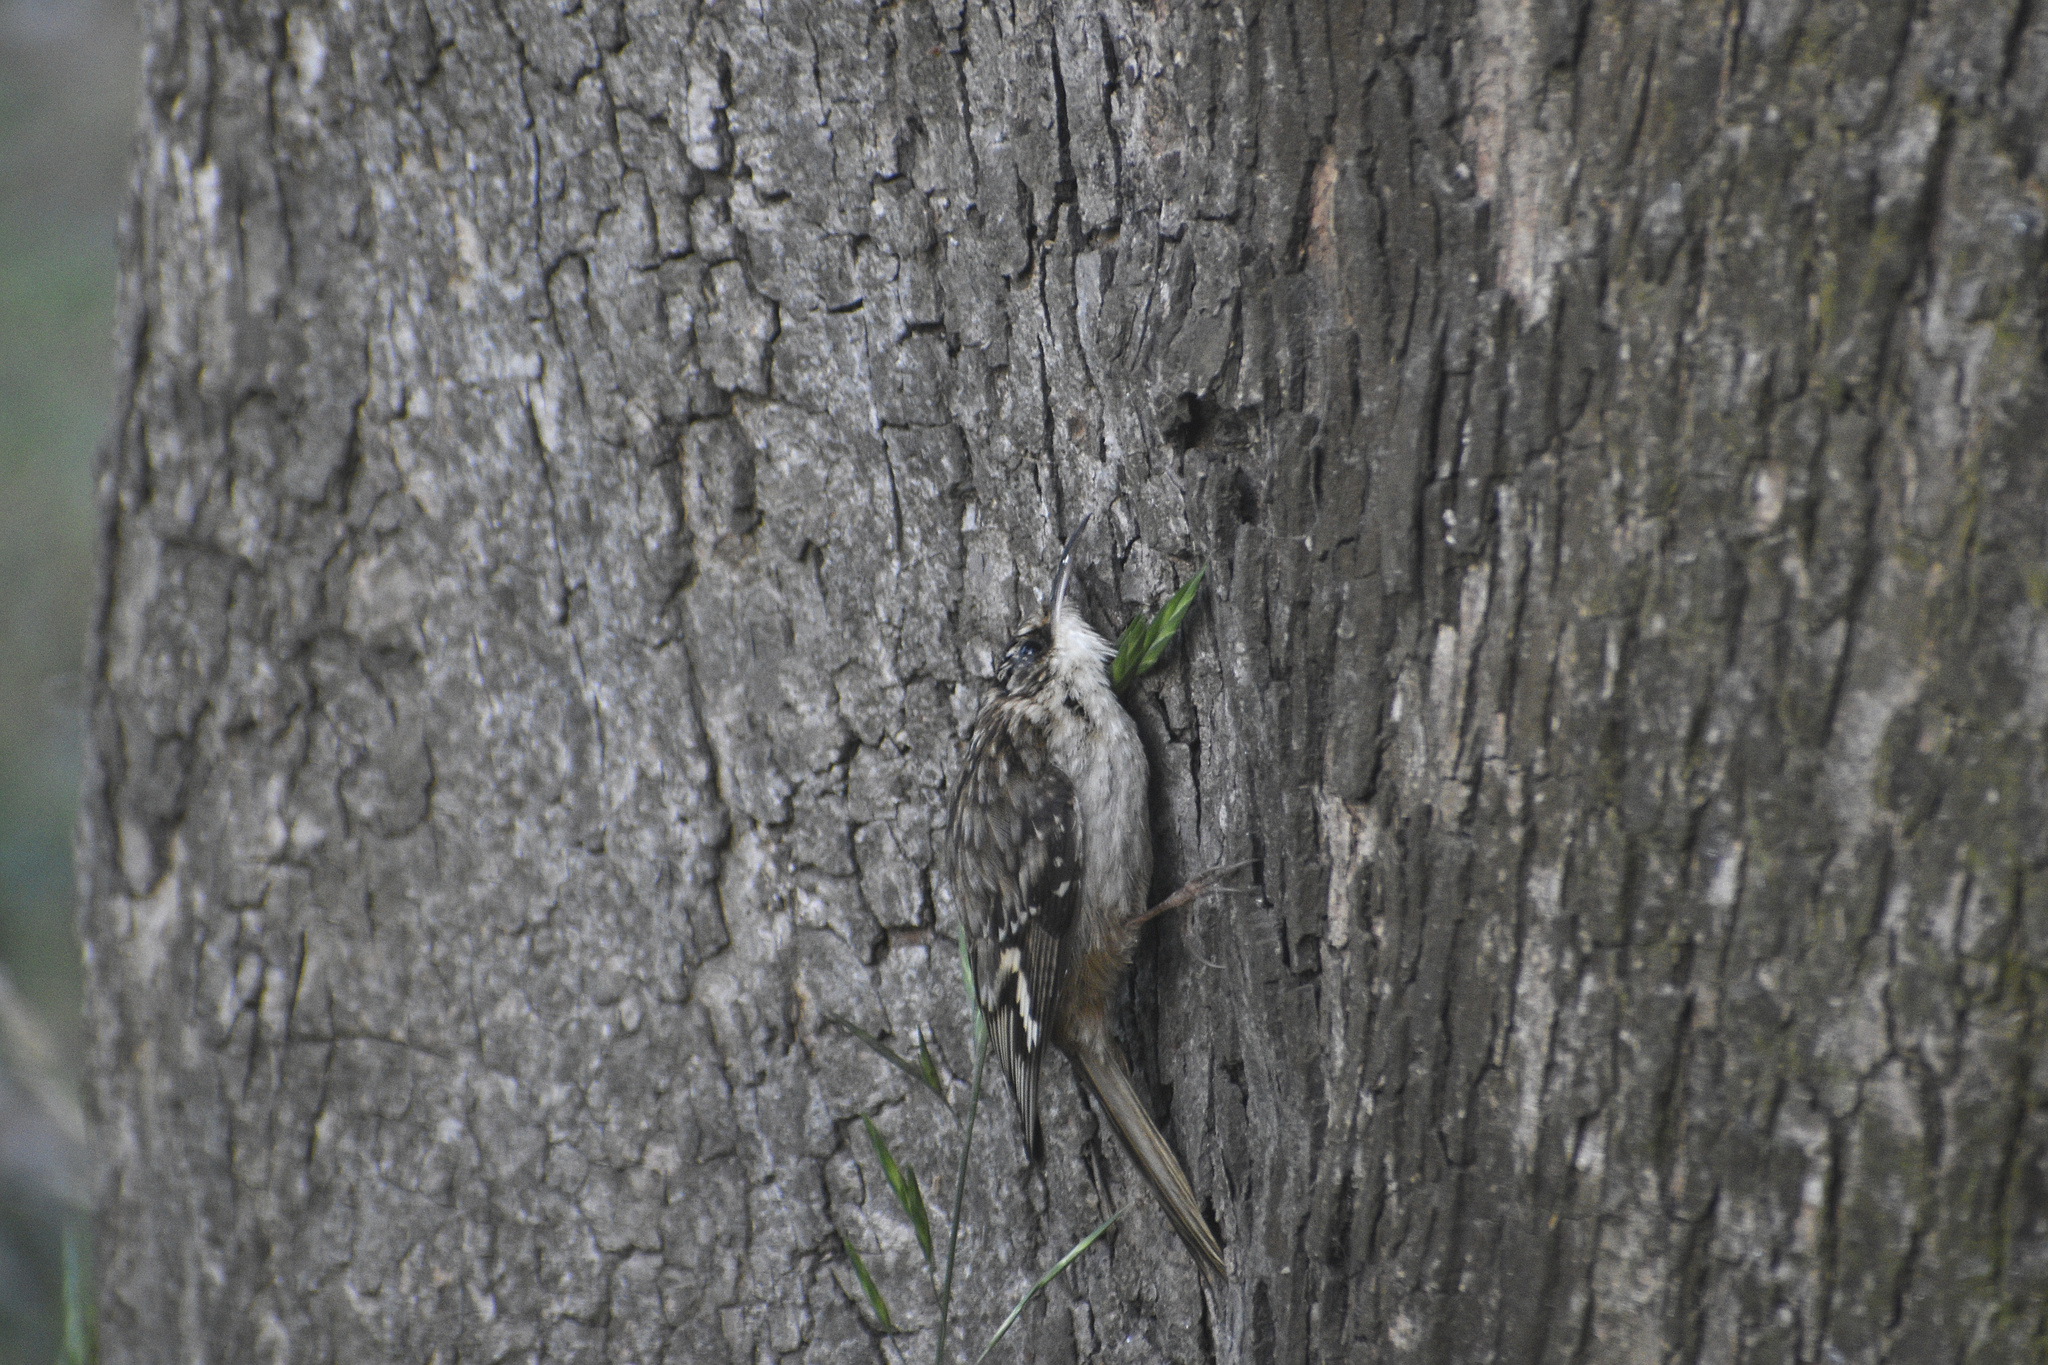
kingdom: Animalia
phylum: Chordata
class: Aves
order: Passeriformes
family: Certhiidae
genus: Certhia
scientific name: Certhia americana
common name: Brown creeper
